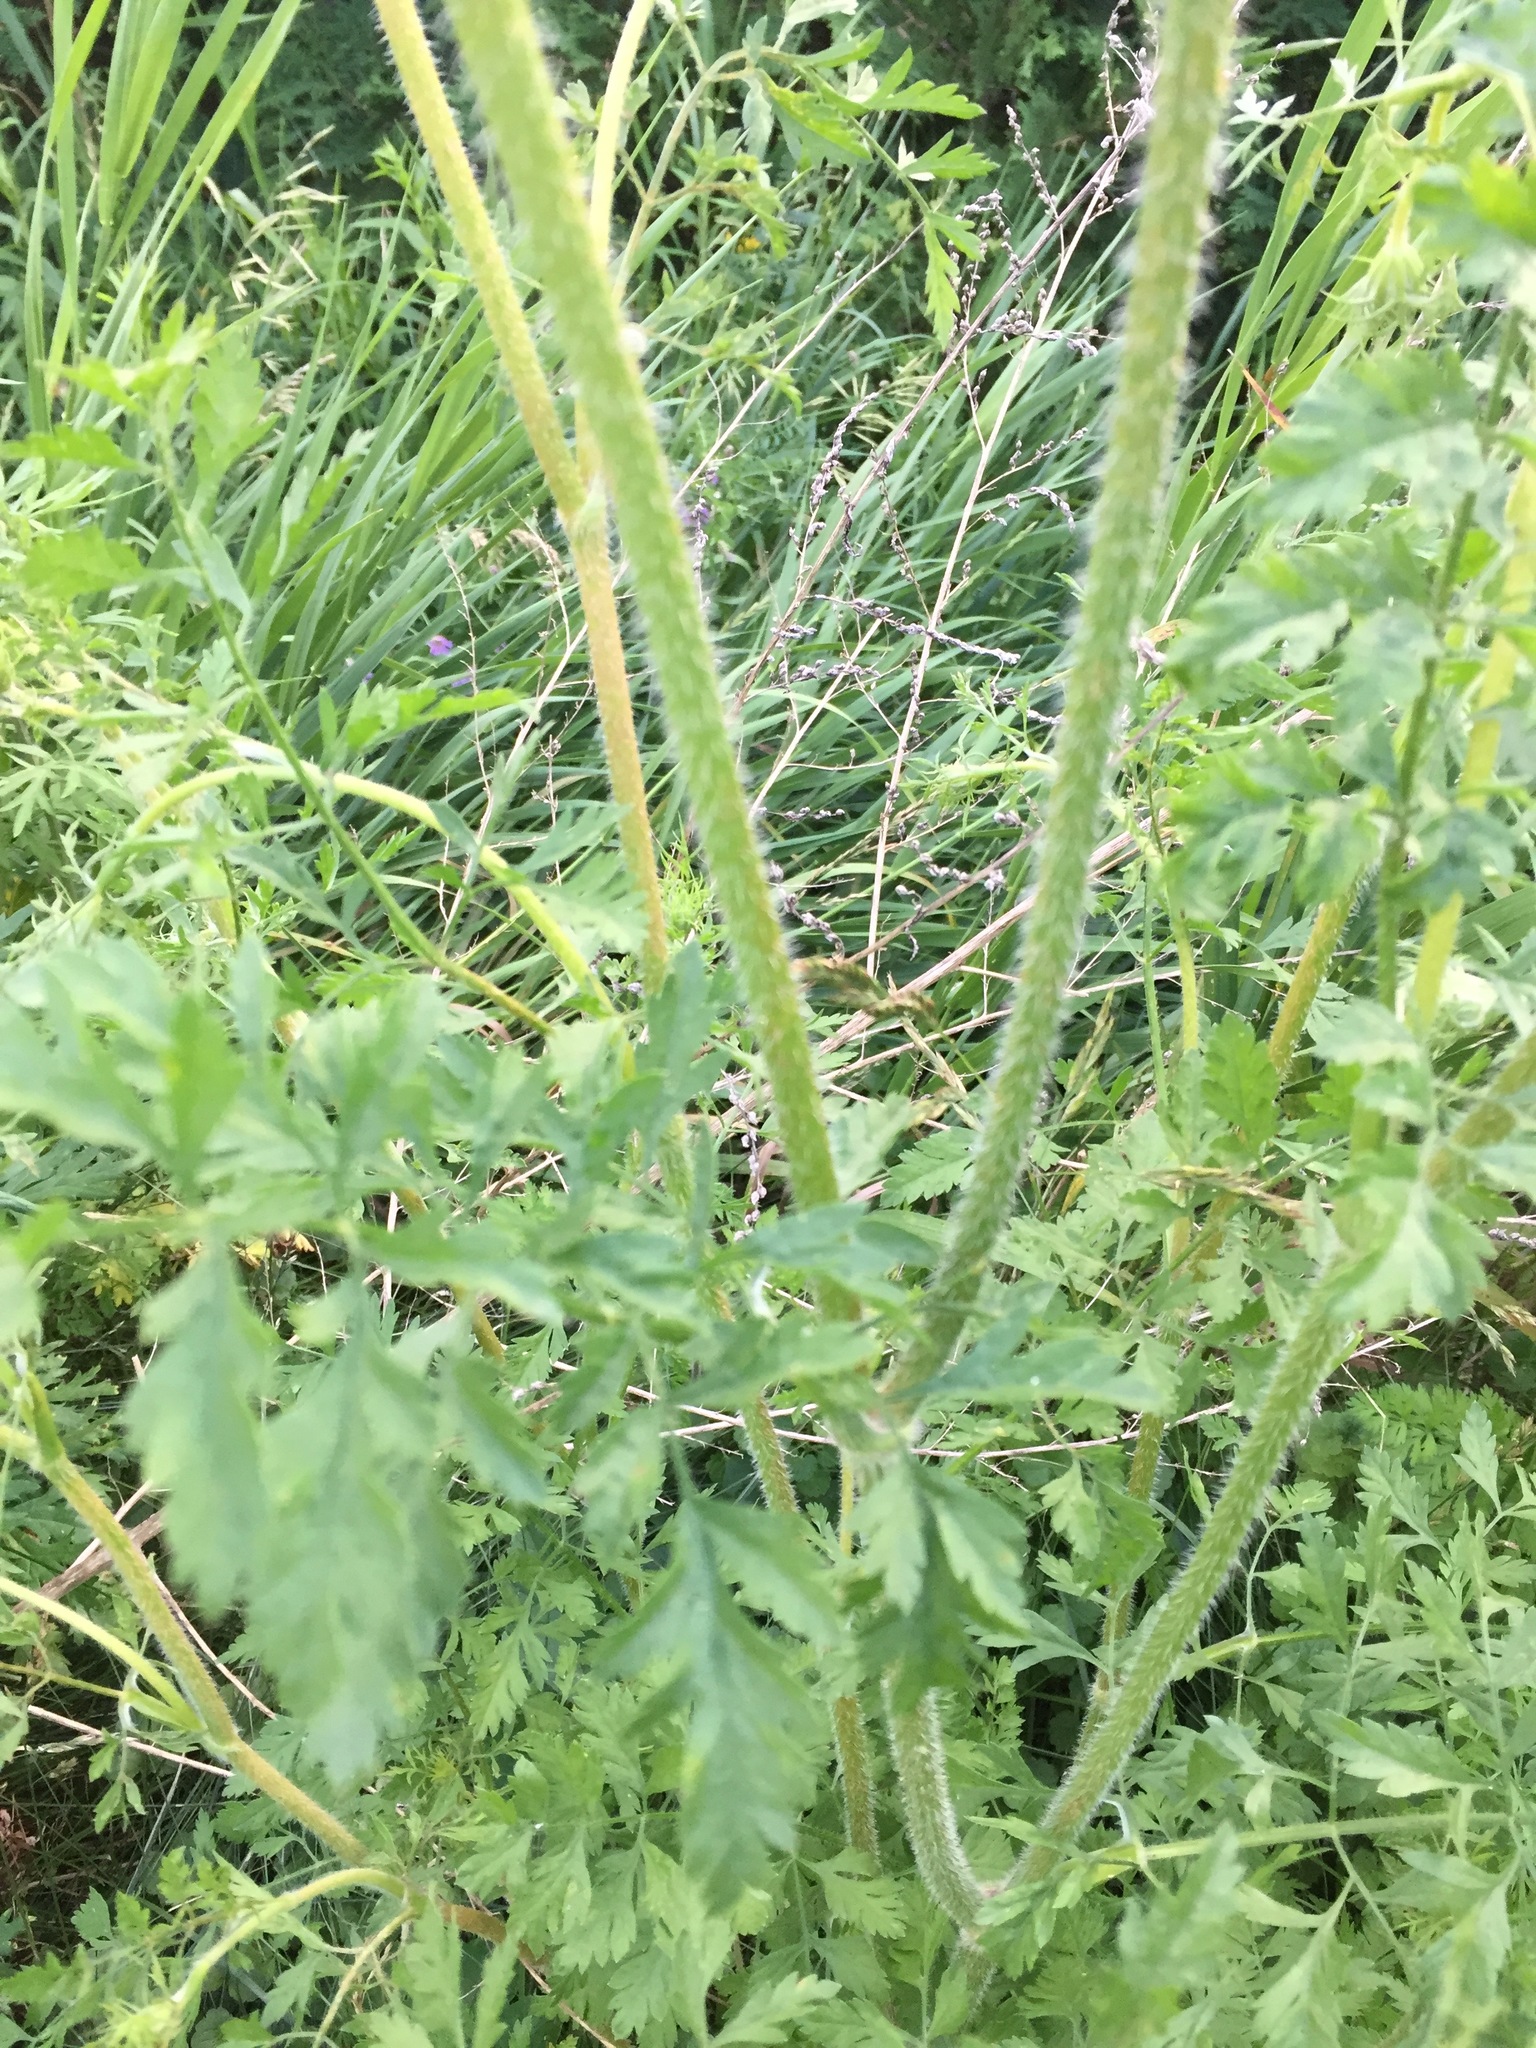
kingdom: Plantae
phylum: Tracheophyta
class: Magnoliopsida
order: Apiales
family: Apiaceae
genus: Daucus
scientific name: Daucus carota
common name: Wild carrot
